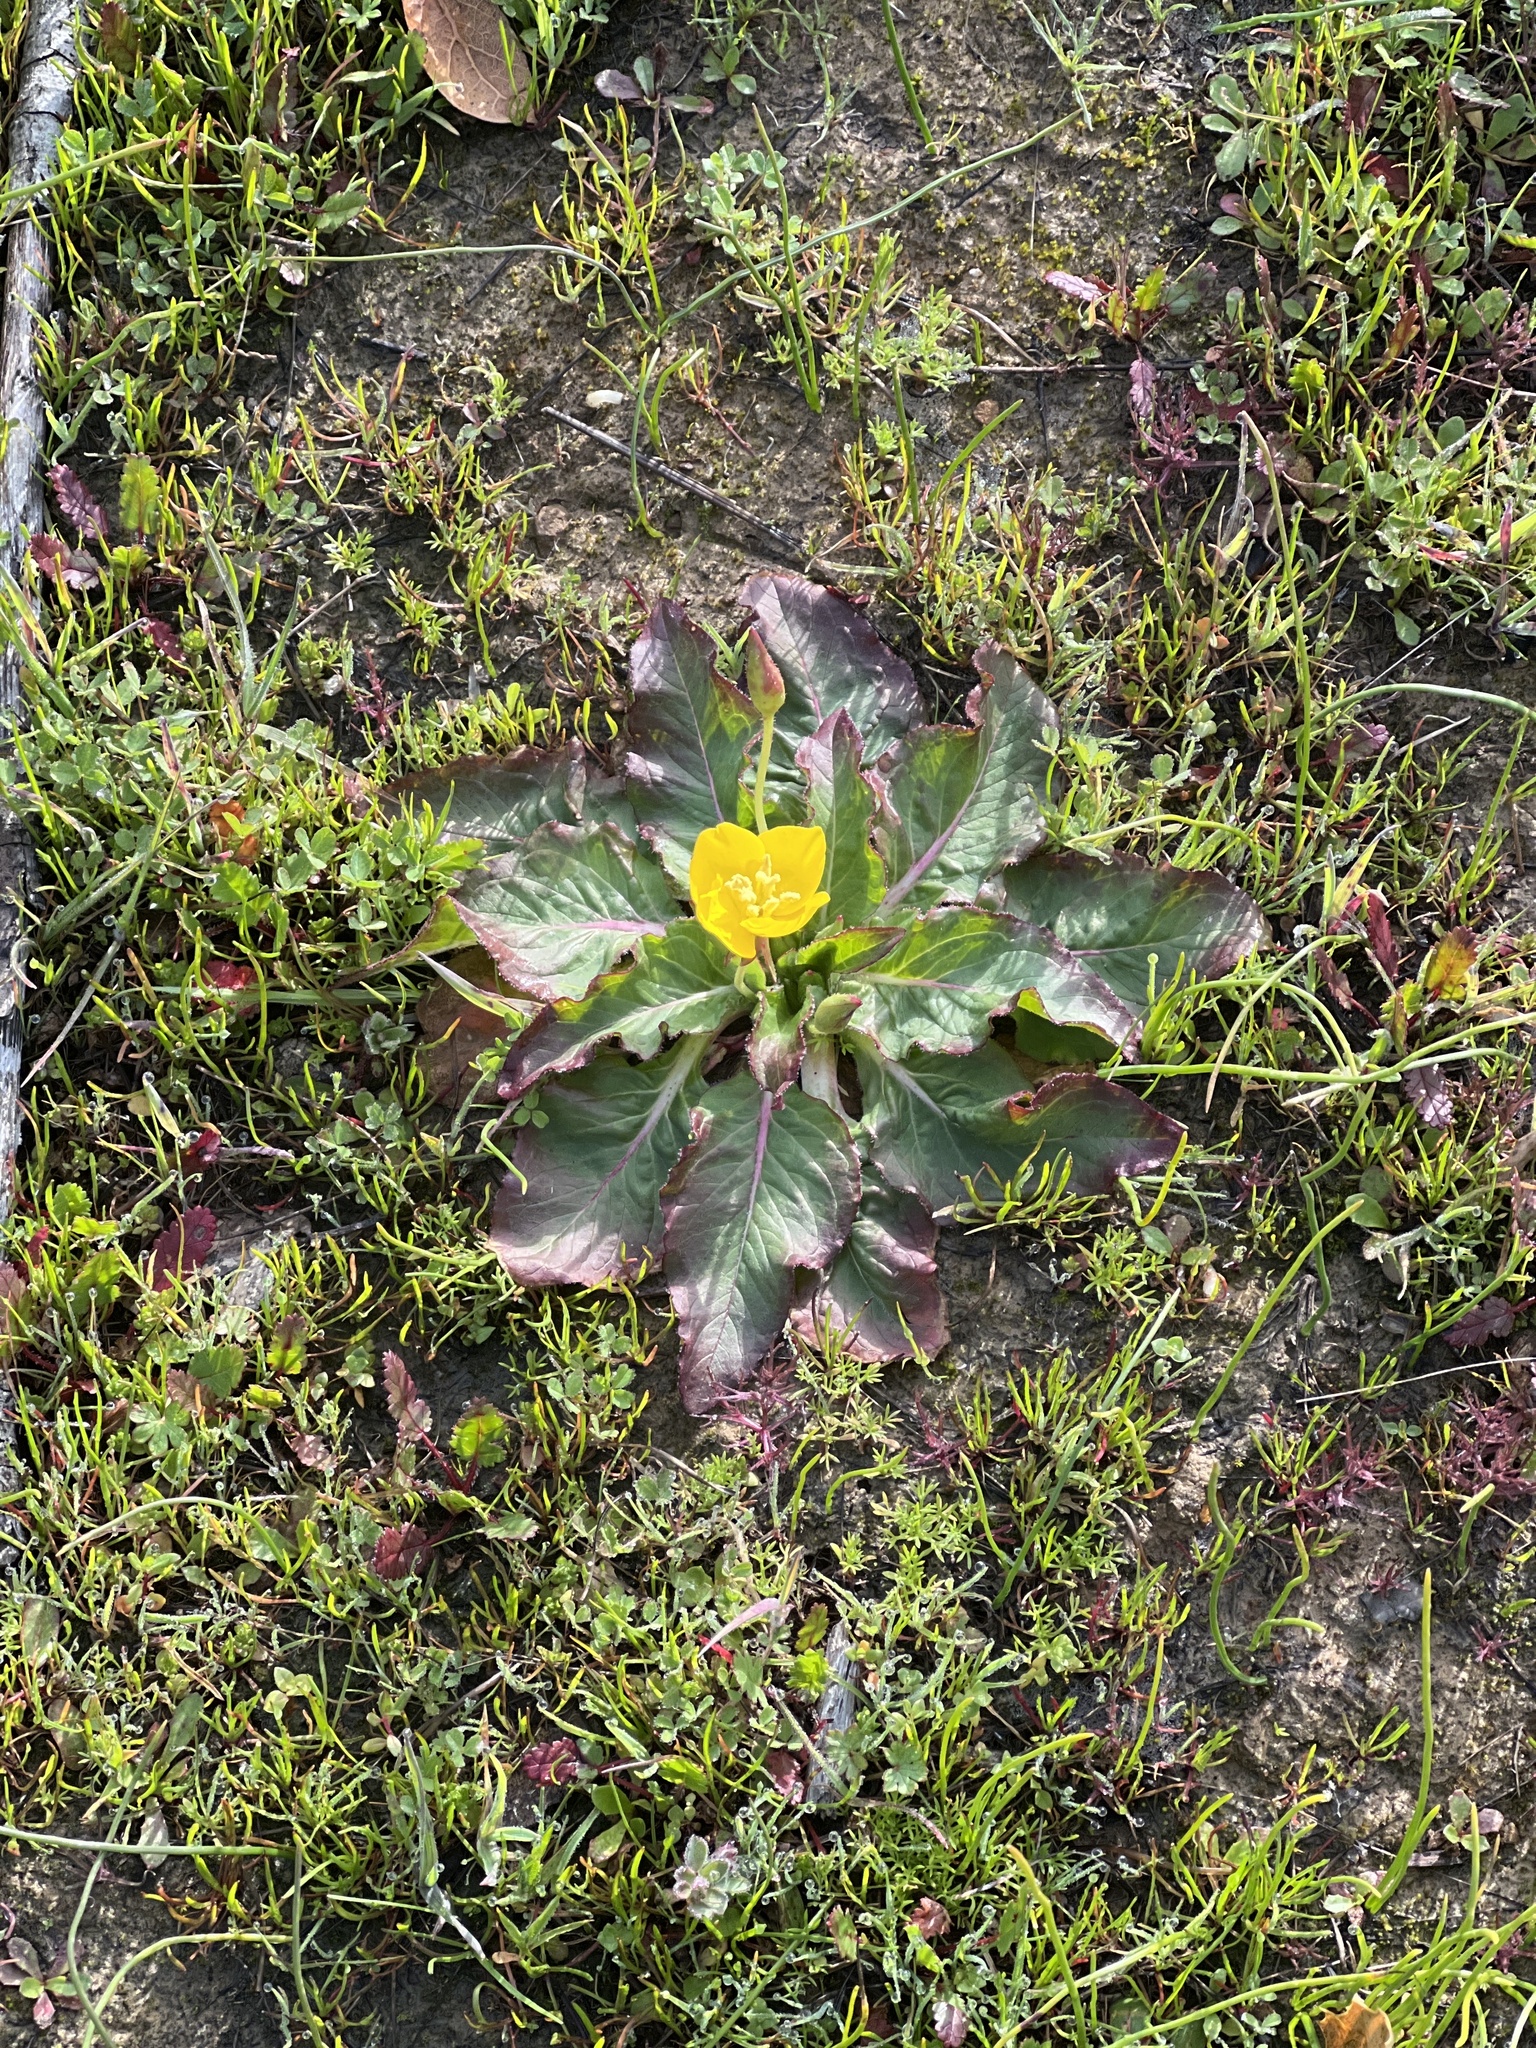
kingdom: Plantae
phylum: Tracheophyta
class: Magnoliopsida
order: Myrtales
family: Onagraceae
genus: Taraxia
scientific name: Taraxia ovata
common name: Goldeneggs
